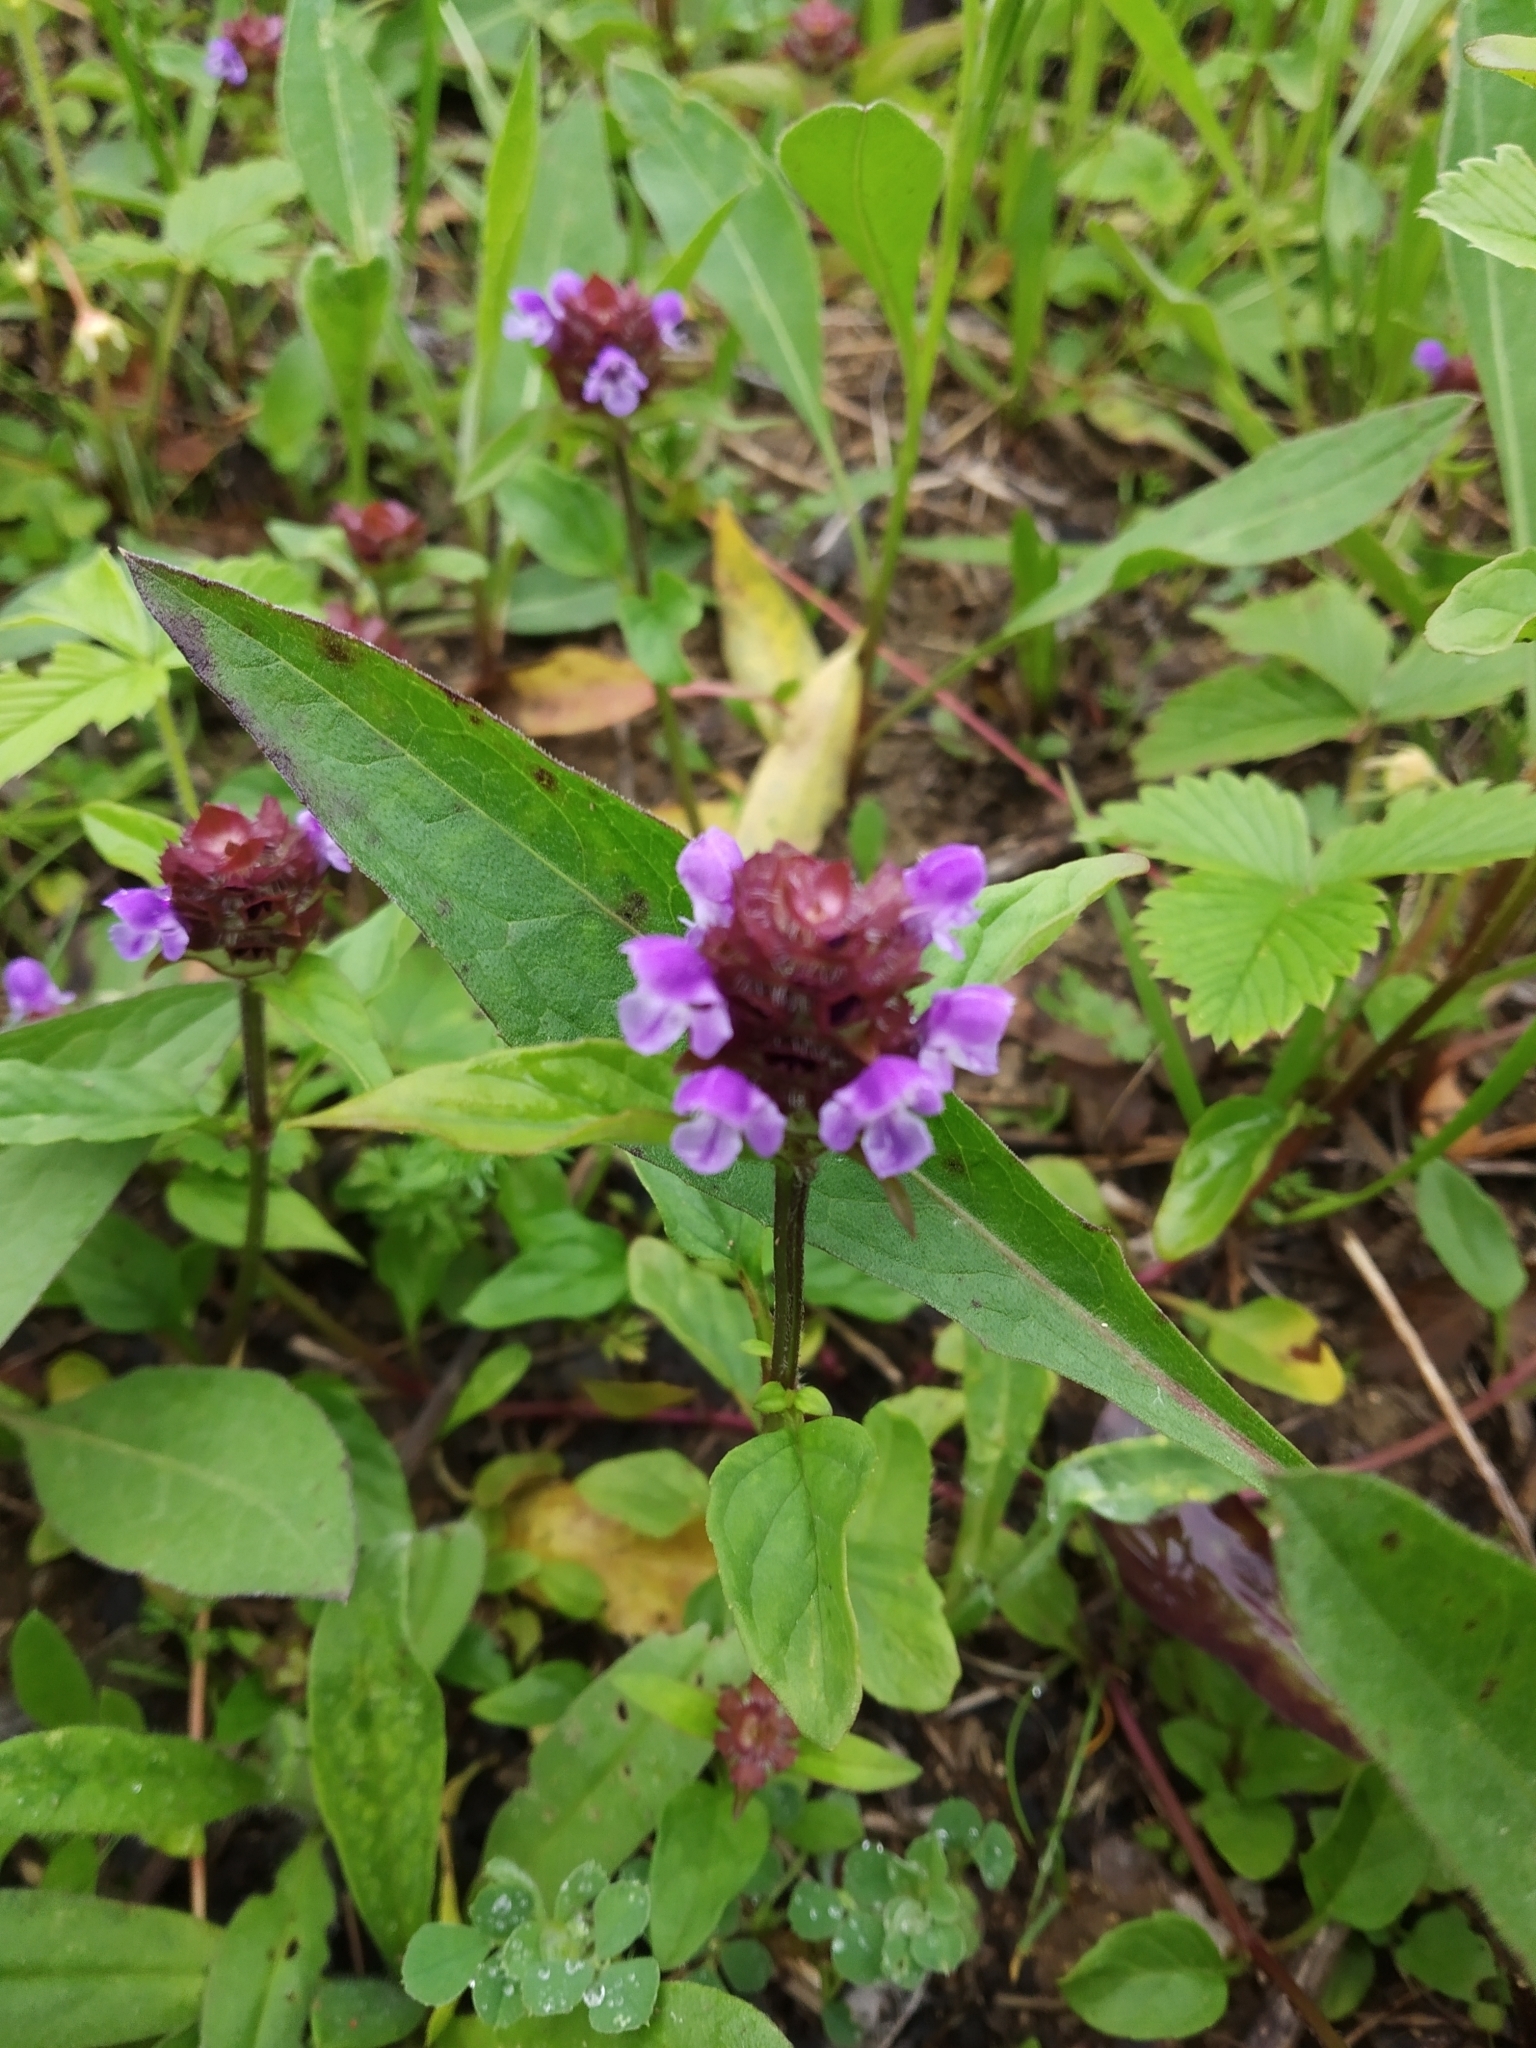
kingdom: Plantae
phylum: Tracheophyta
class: Magnoliopsida
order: Lamiales
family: Lamiaceae
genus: Prunella
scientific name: Prunella vulgaris
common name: Heal-all
